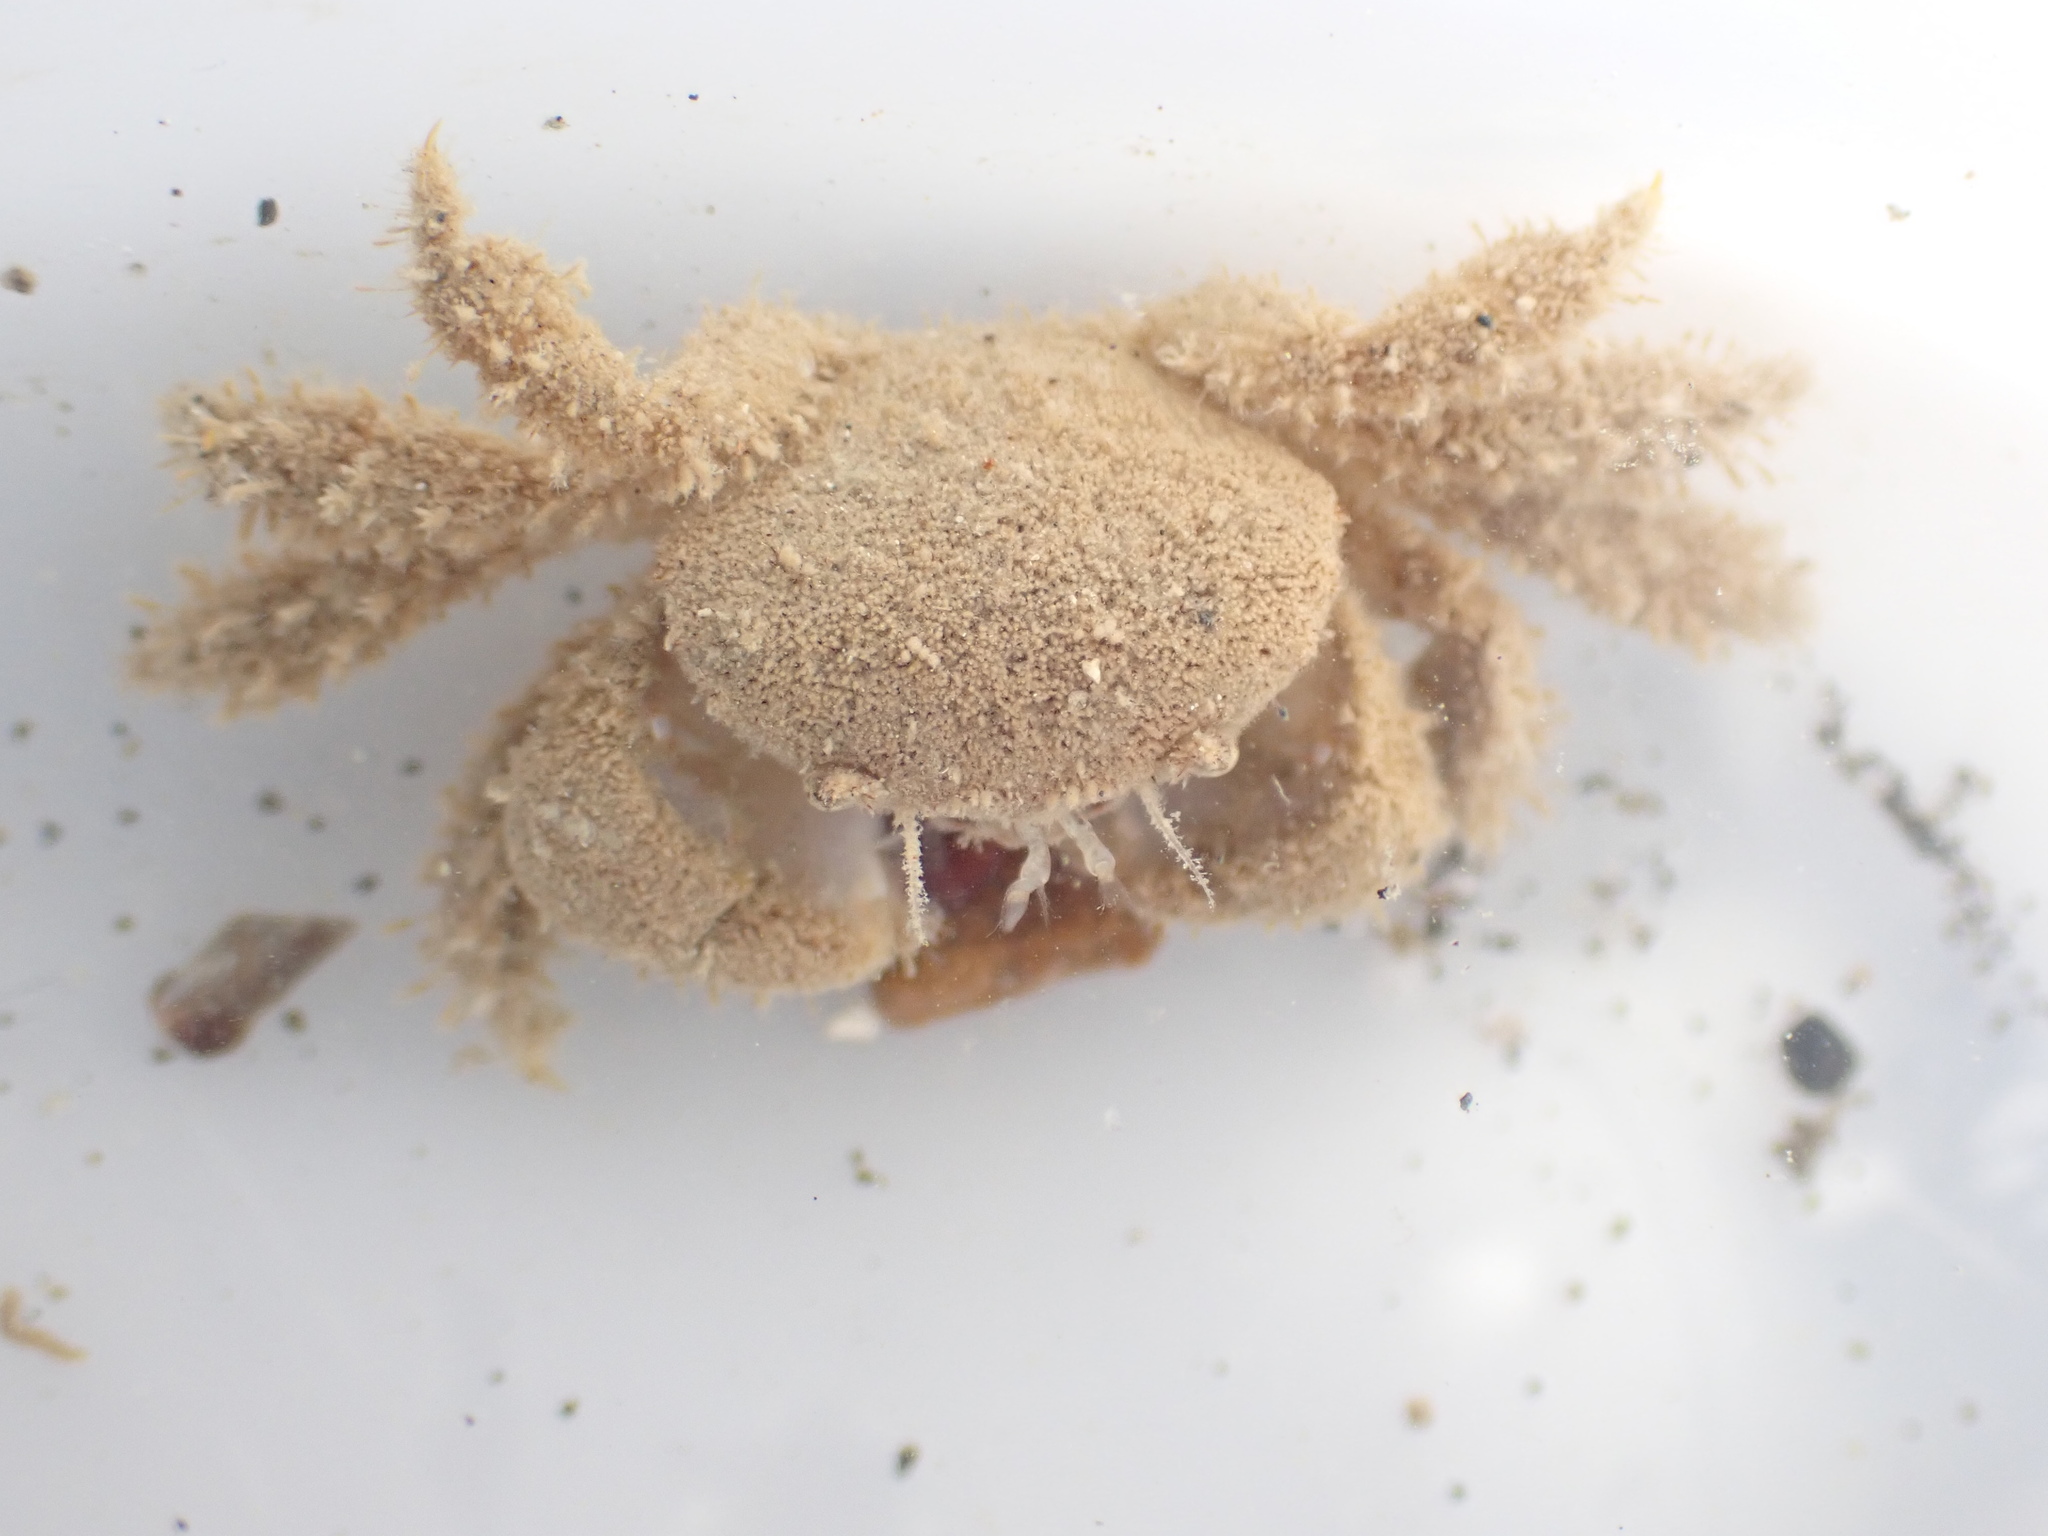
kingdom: Animalia
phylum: Arthropoda
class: Malacostraca
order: Decapoda
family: Pilumnidae
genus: Pilumnus
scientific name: Pilumnus lumpinus
